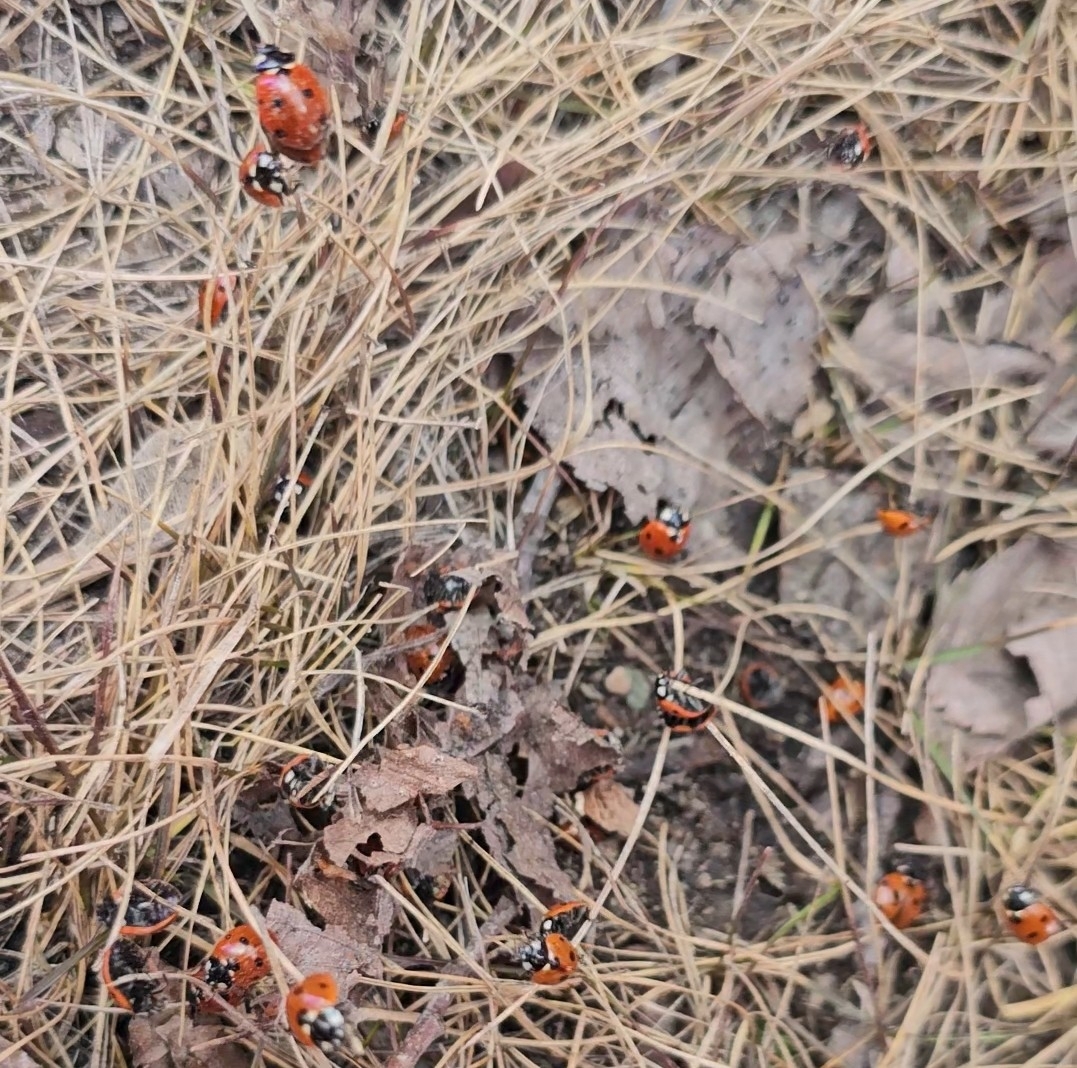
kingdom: Animalia
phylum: Arthropoda
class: Insecta
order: Coleoptera
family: Coccinellidae
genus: Coccinella
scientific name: Coccinella septempunctata
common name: Sevenspotted lady beetle
